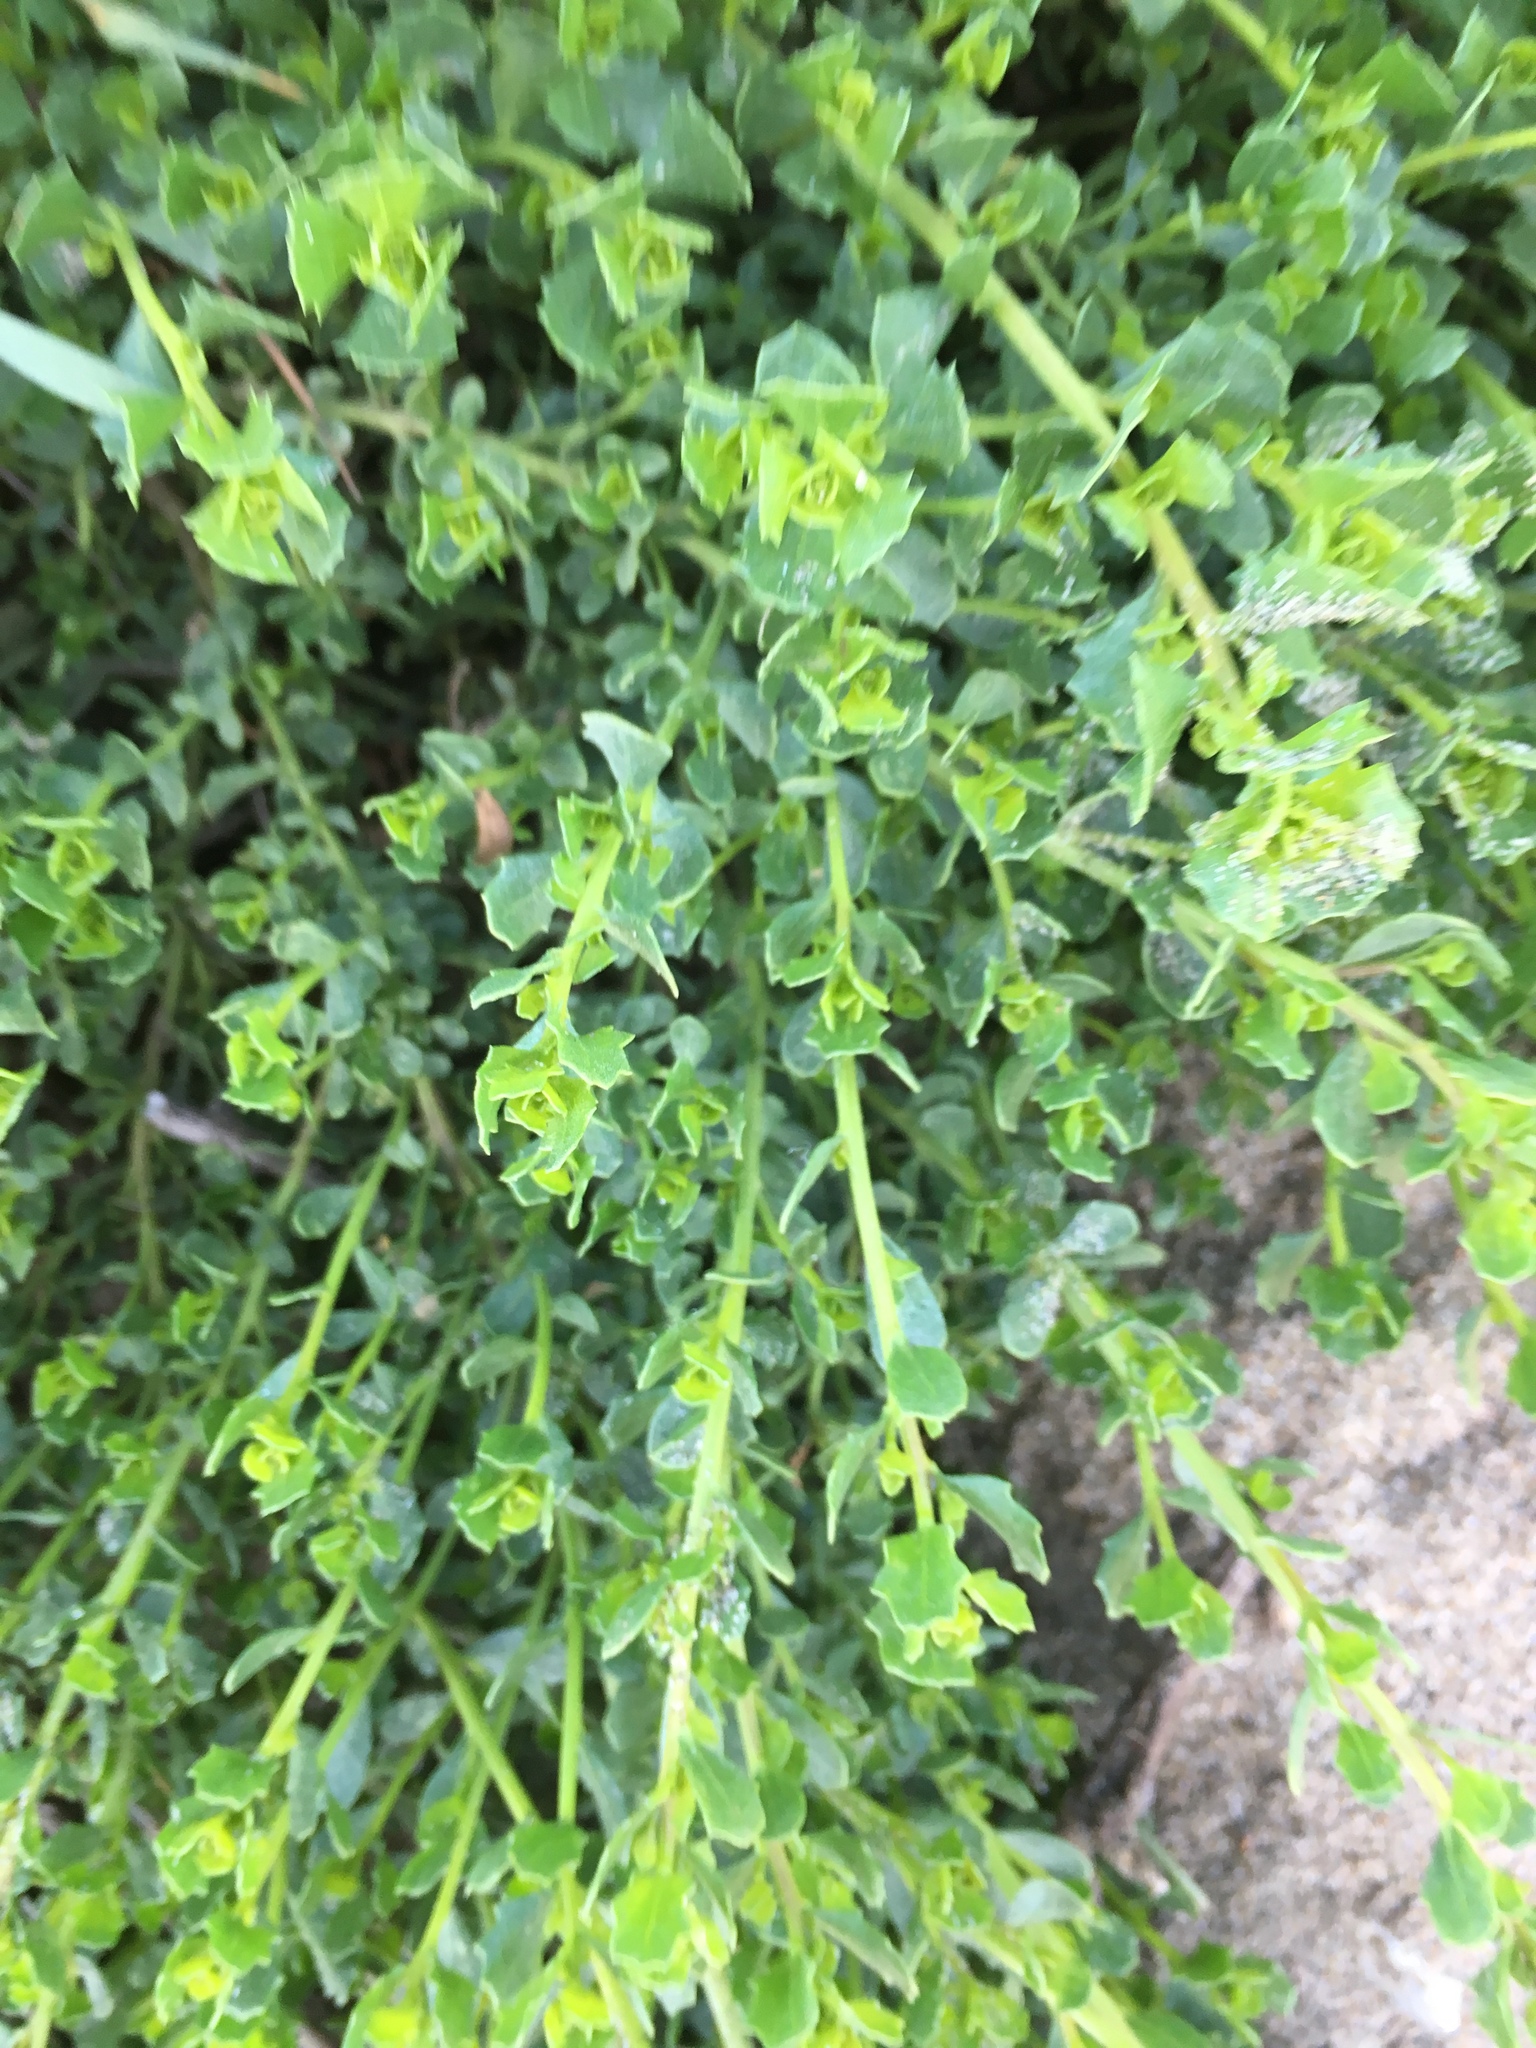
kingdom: Plantae
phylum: Tracheophyta
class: Magnoliopsida
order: Asterales
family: Asteraceae
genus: Baccharis
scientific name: Baccharis pilularis
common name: Coyotebrush
